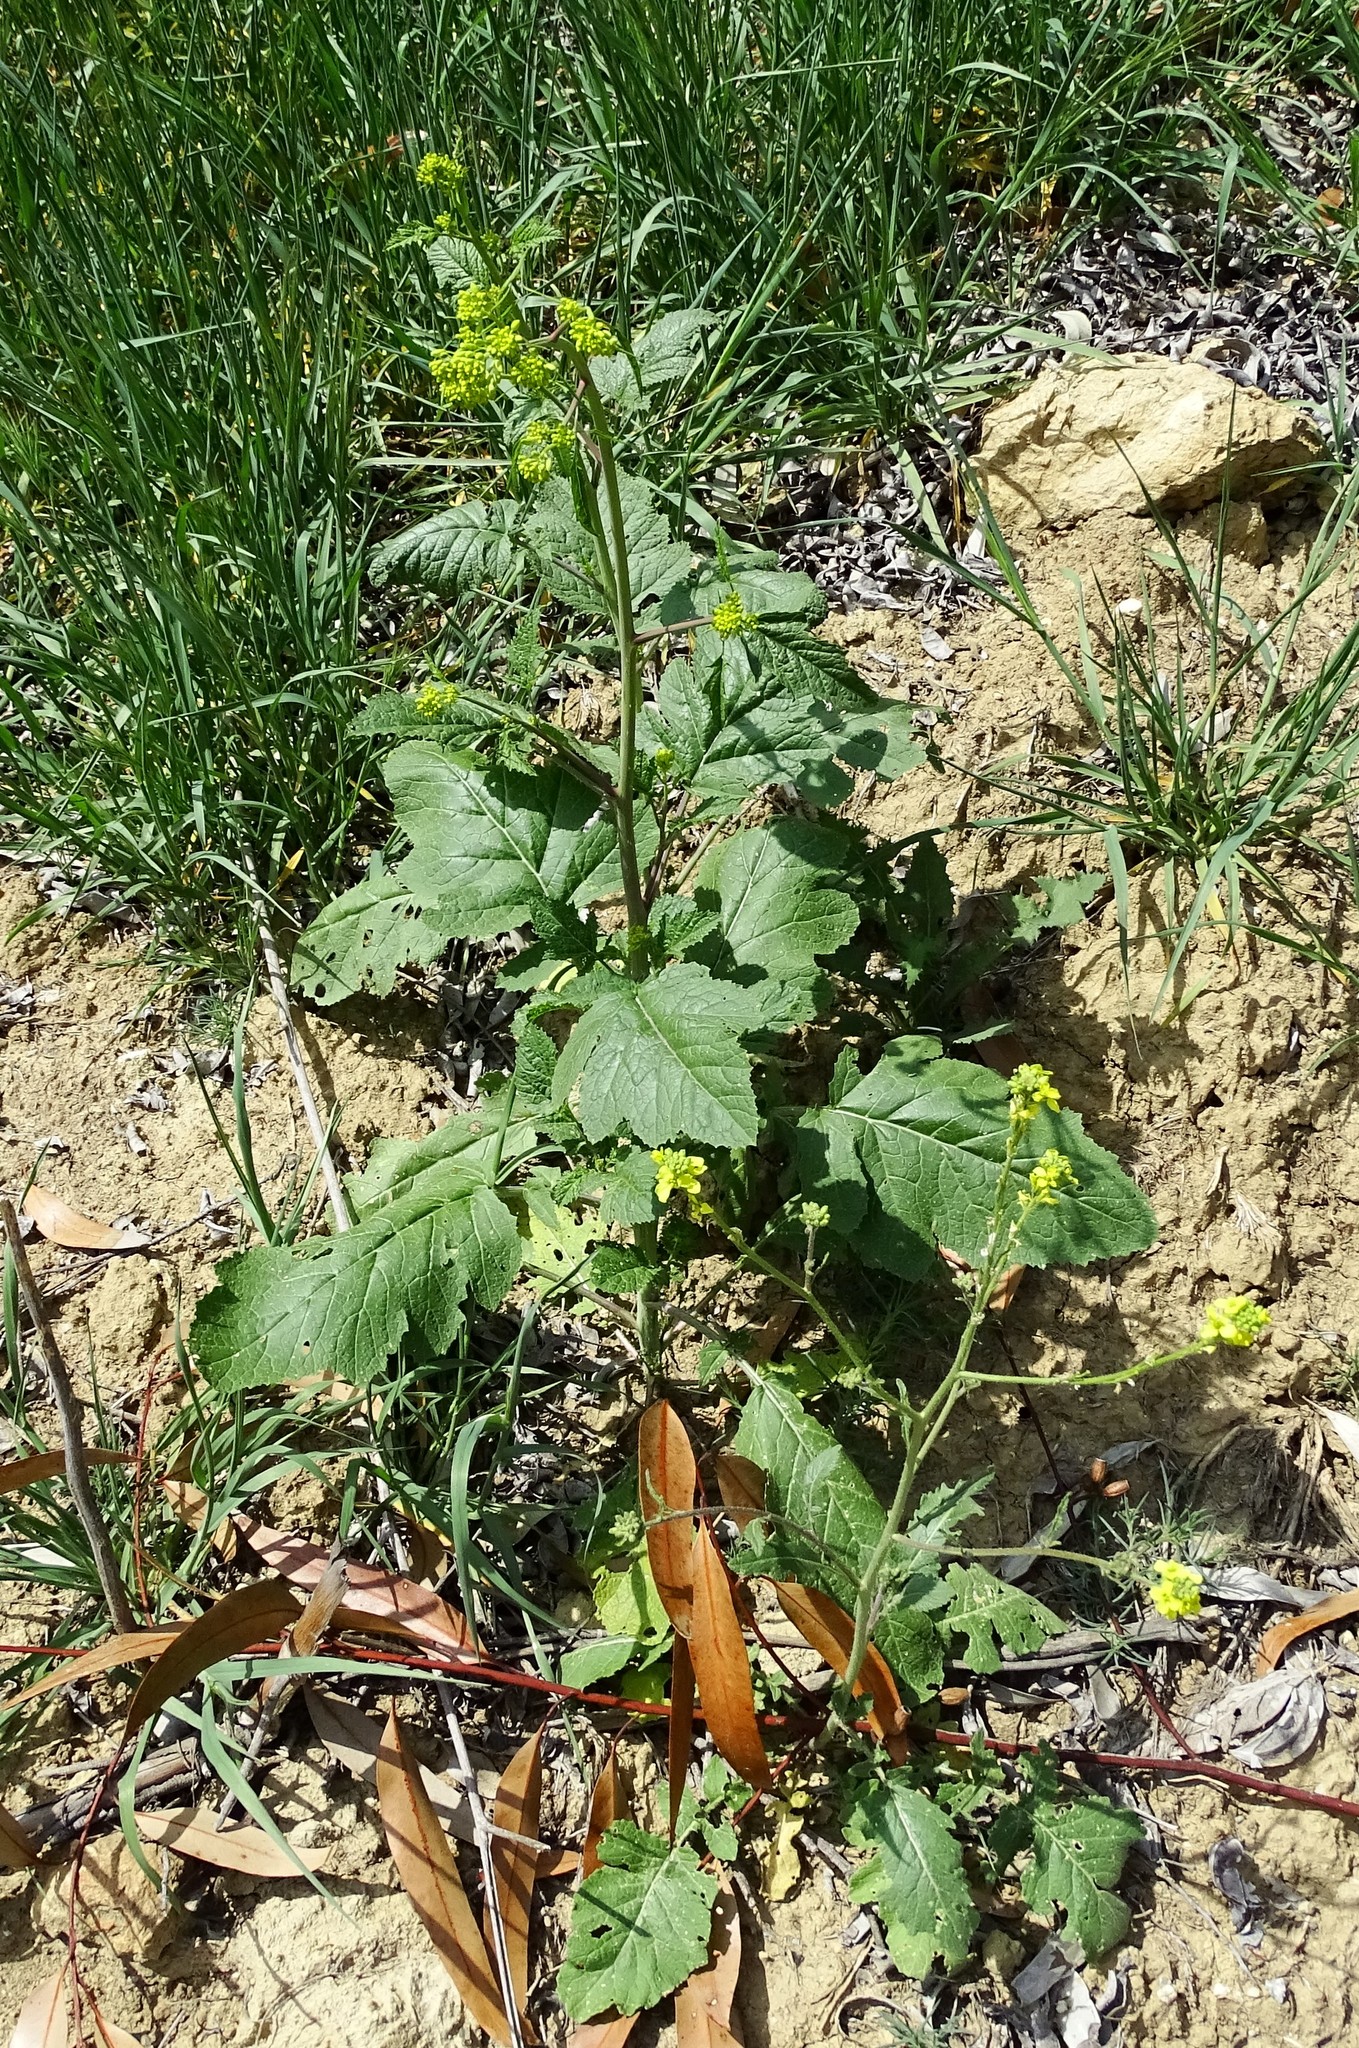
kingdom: Plantae
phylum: Tracheophyta
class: Magnoliopsida
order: Brassicales
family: Brassicaceae
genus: Brassica
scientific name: Brassica nigra
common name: Black mustard
